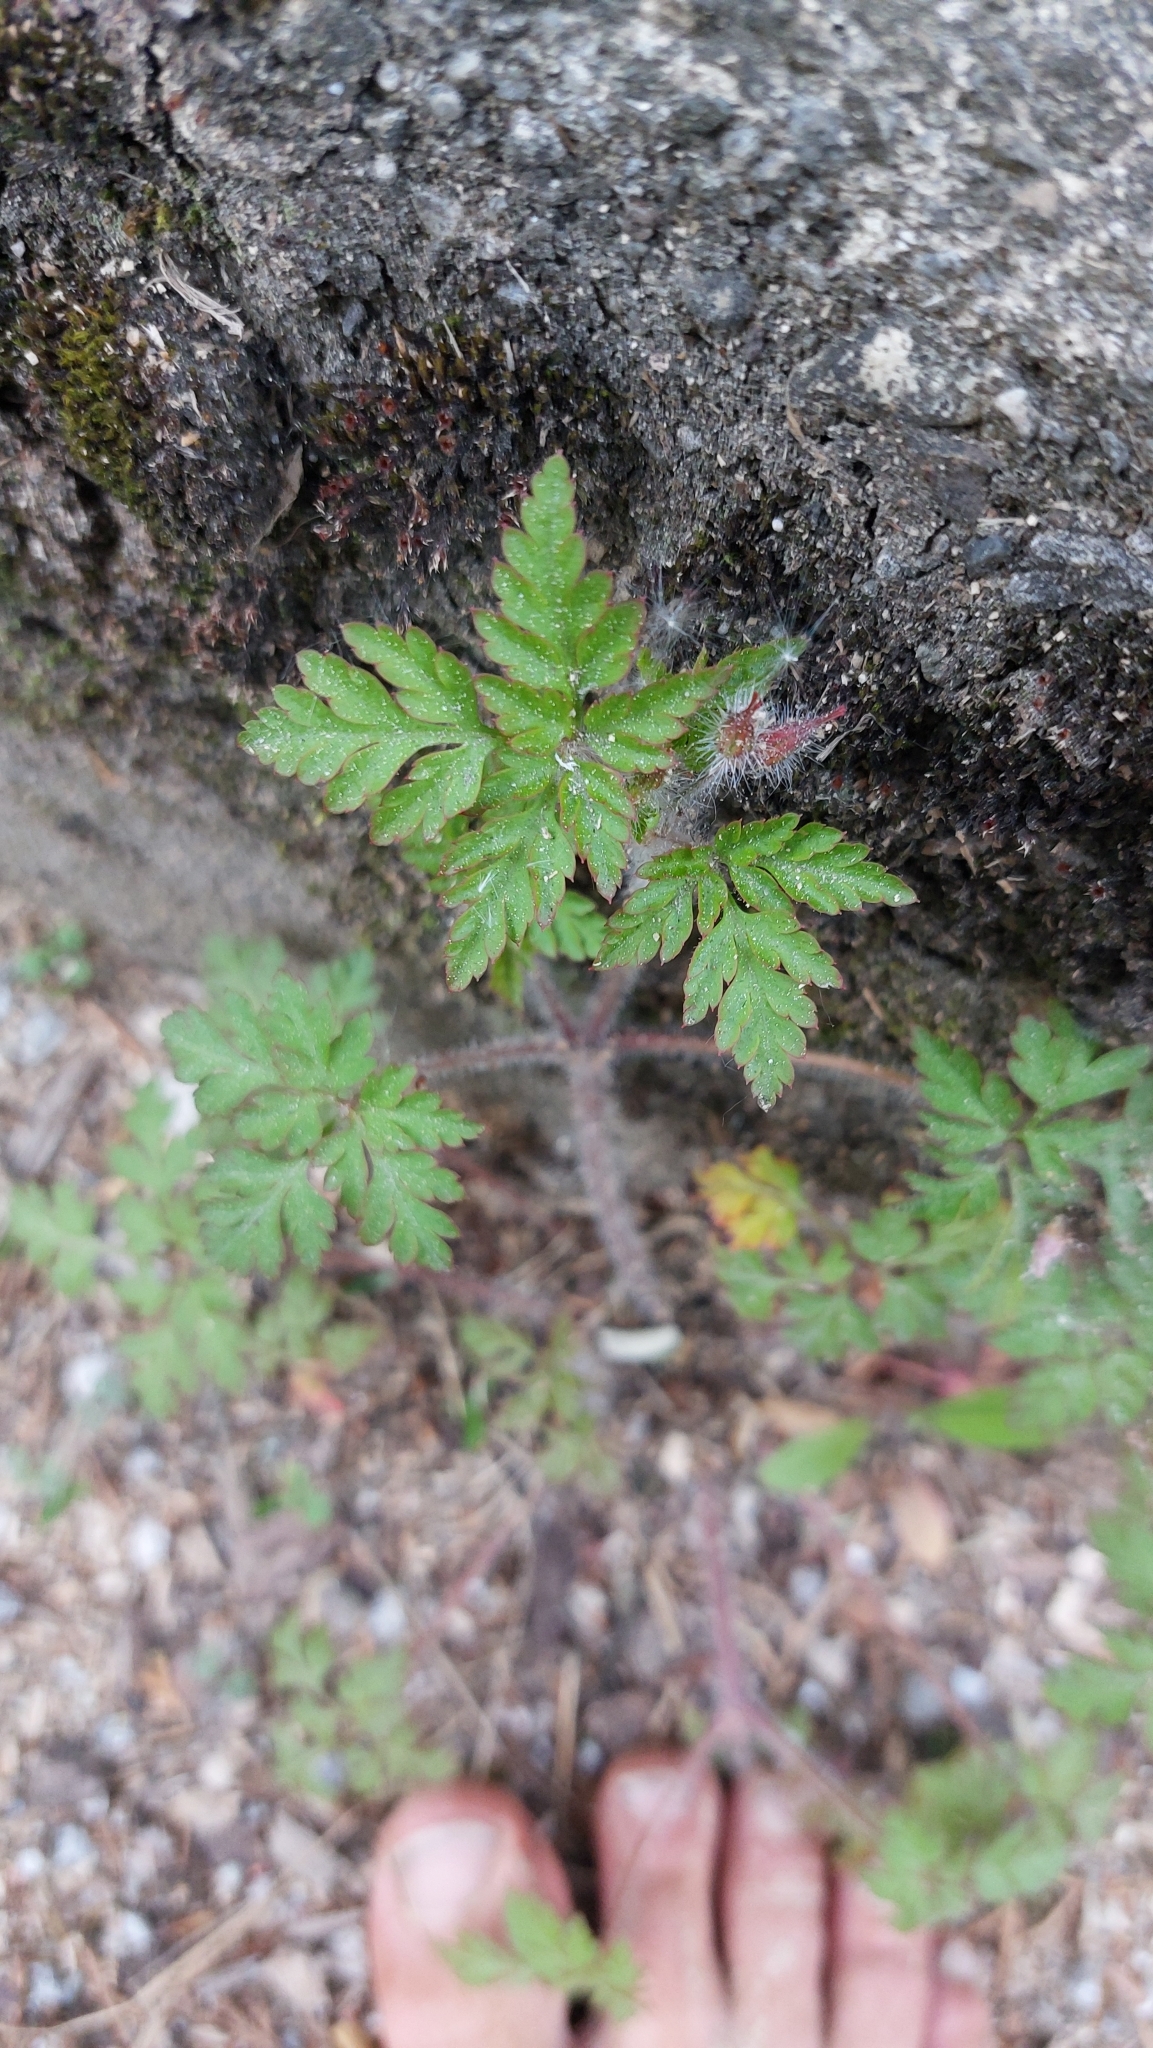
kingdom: Plantae
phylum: Tracheophyta
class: Magnoliopsida
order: Geraniales
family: Geraniaceae
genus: Geranium
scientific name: Geranium robertianum
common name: Herb-robert
